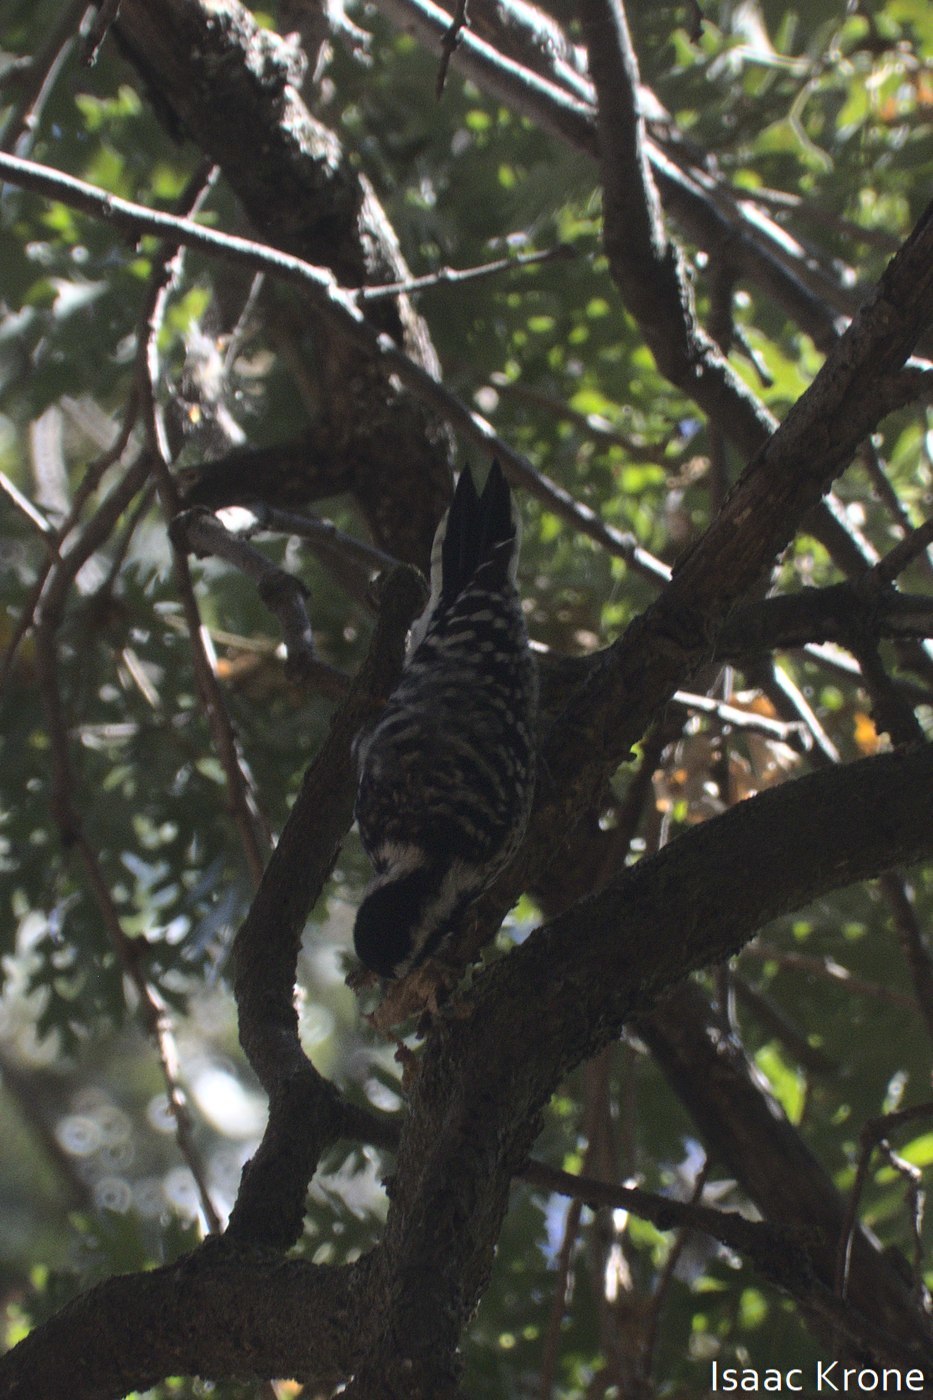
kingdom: Animalia
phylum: Chordata
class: Aves
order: Piciformes
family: Picidae
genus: Dryobates
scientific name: Dryobates nuttallii
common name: Nuttall's woodpecker
